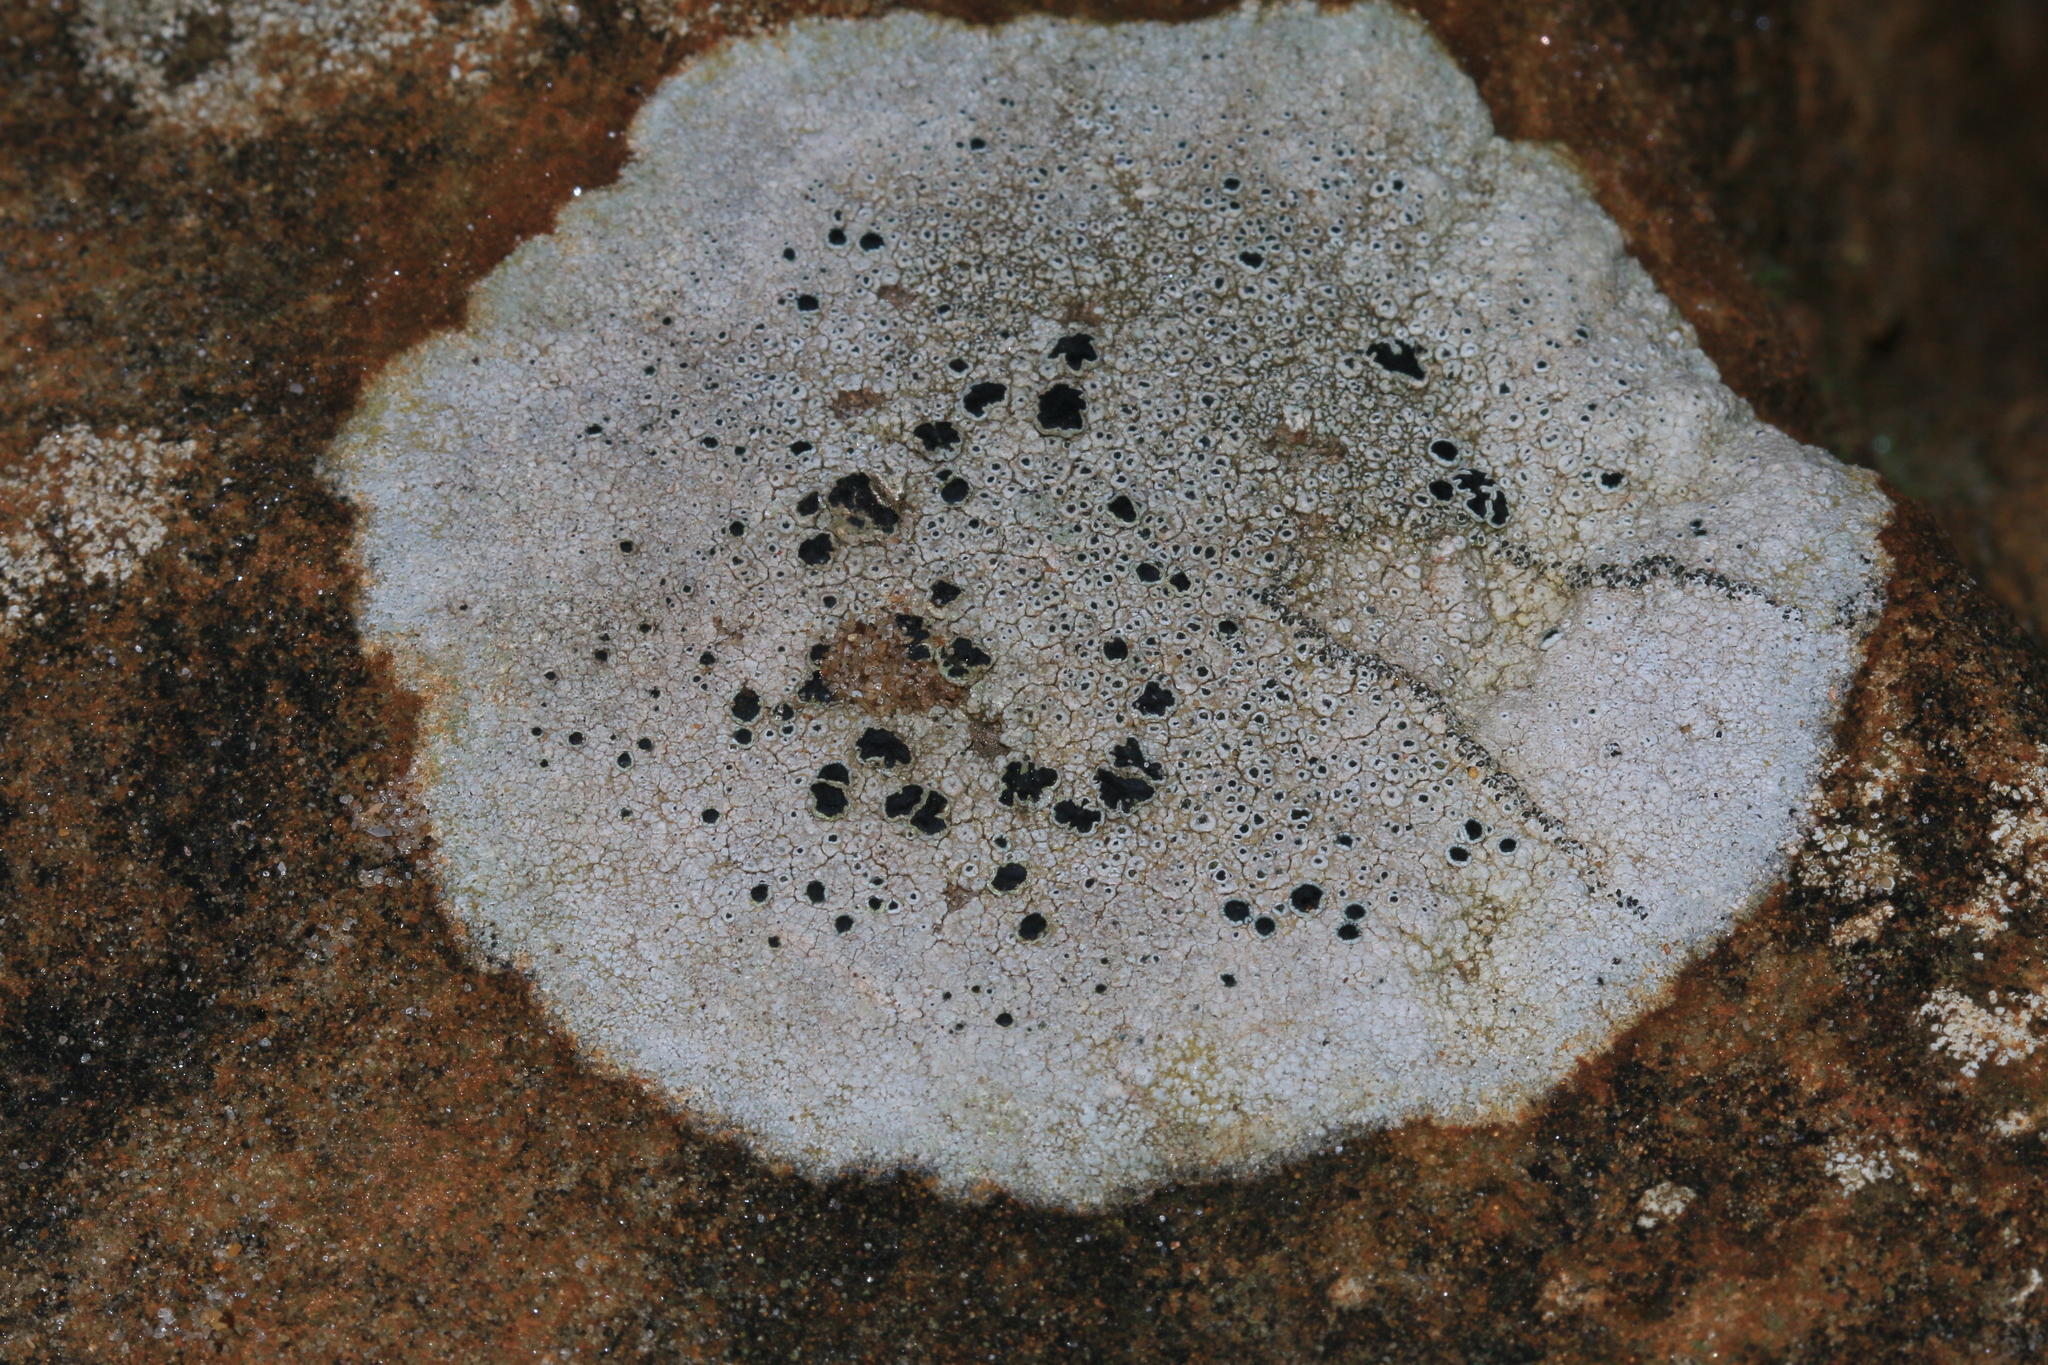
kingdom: Fungi
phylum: Ascomycota
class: Lecanoromycetes
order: Lecanorales
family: Tephromelataceae
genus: Tephromela
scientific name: Tephromela atra
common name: Black shields
